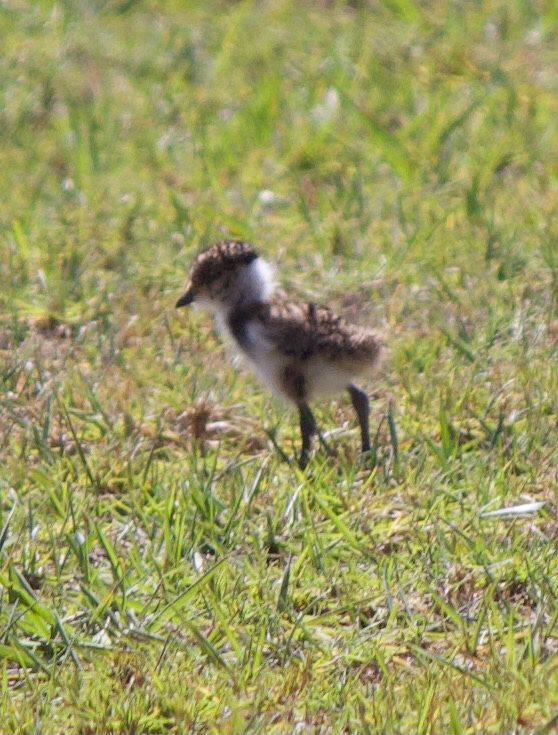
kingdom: Animalia
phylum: Chordata
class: Aves
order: Charadriiformes
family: Charadriidae
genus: Vanellus
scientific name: Vanellus chilensis
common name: Southern lapwing
